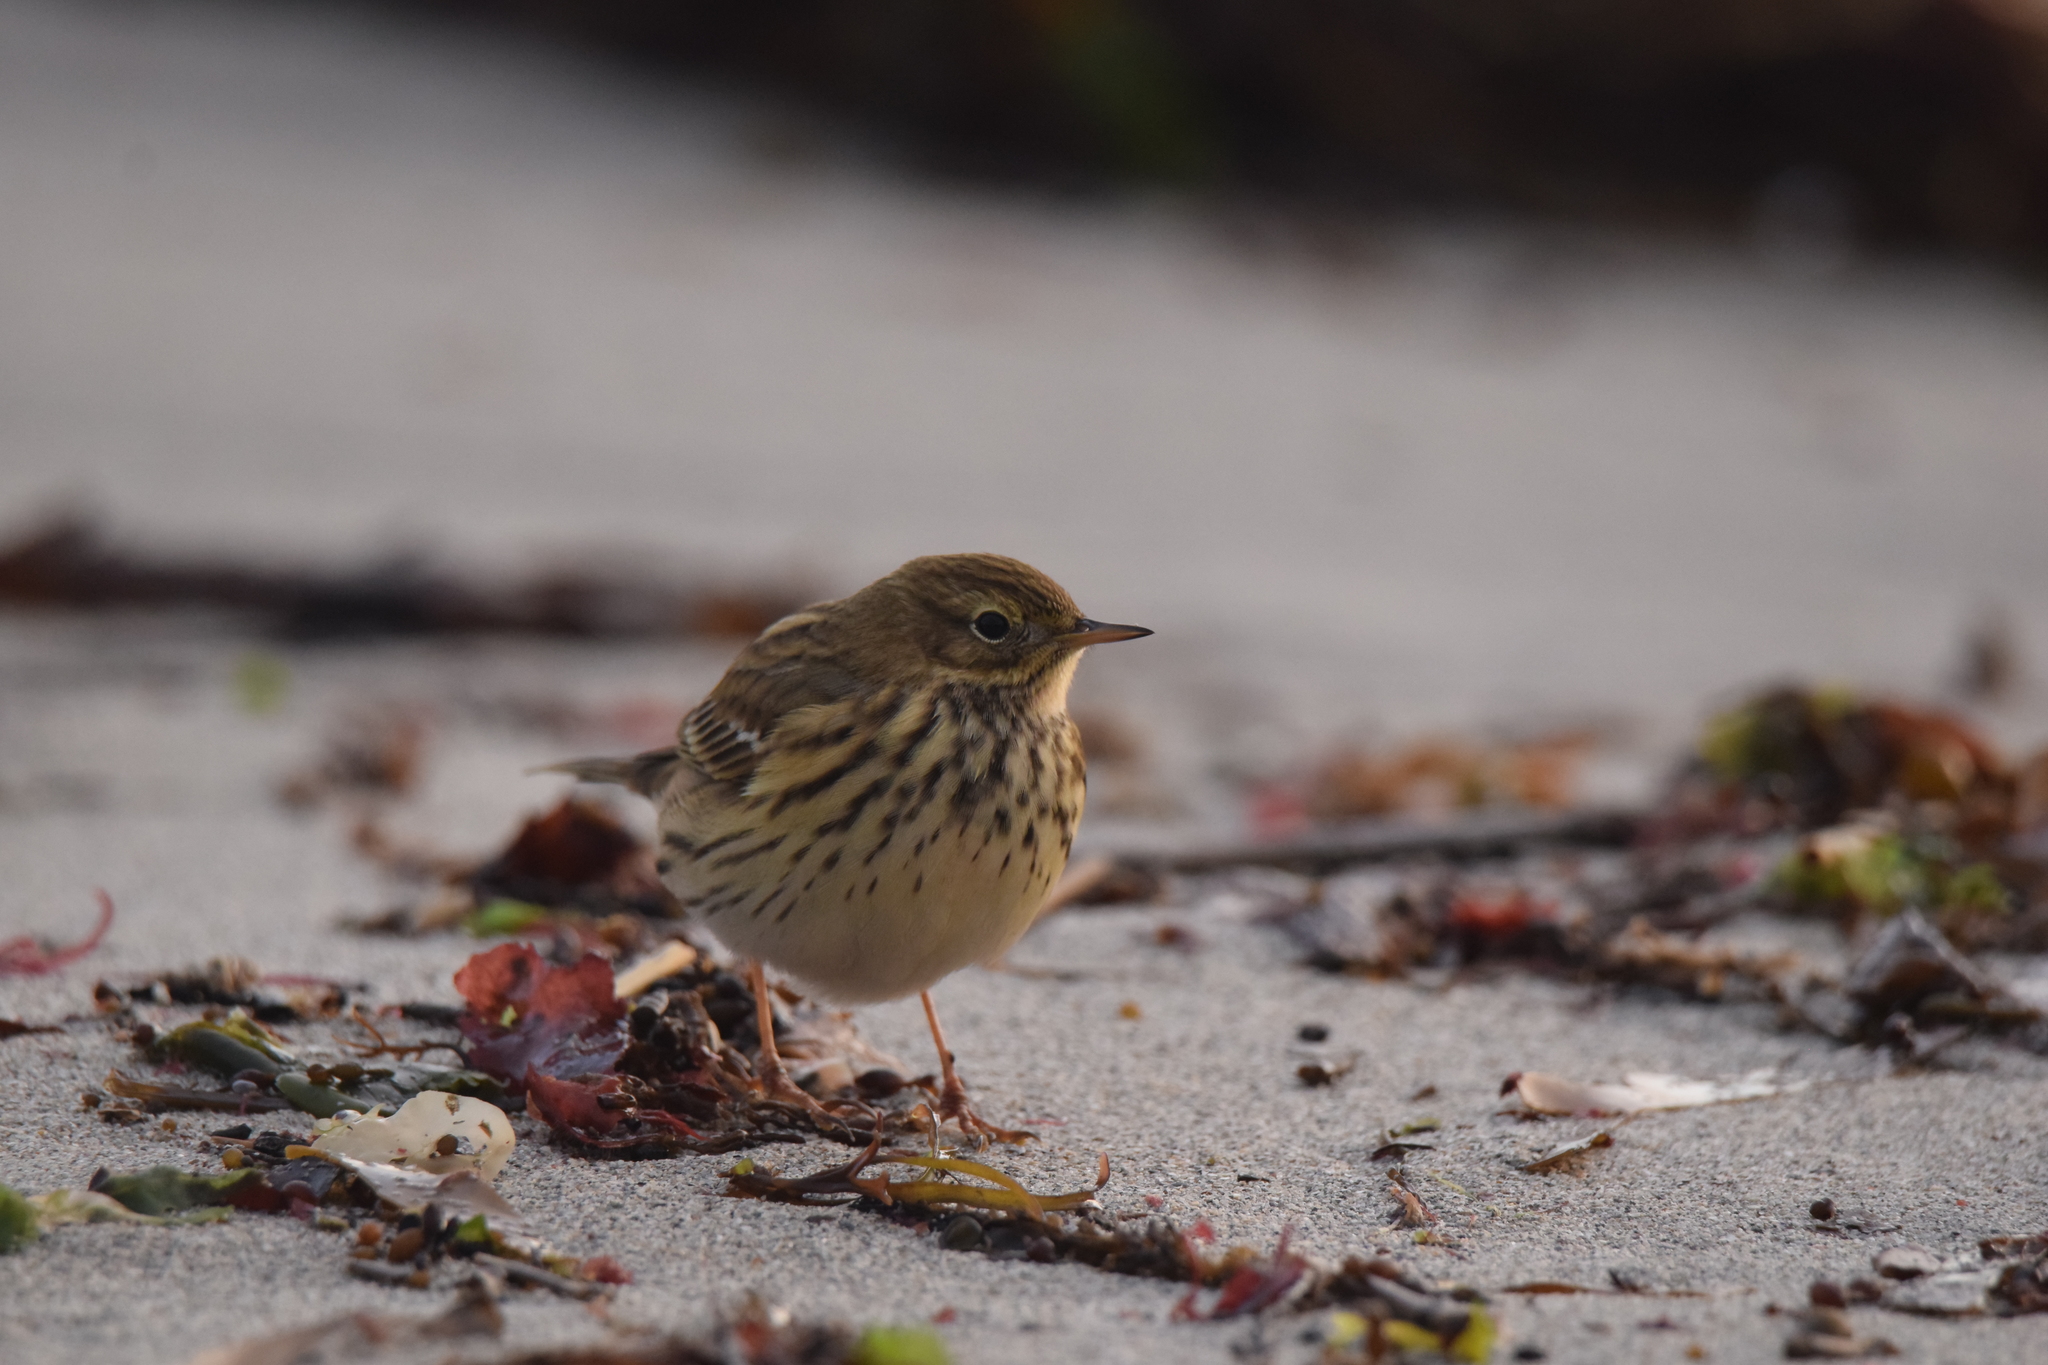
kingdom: Animalia
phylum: Chordata
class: Aves
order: Passeriformes
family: Motacillidae
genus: Anthus
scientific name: Anthus pratensis
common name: Meadow pipit
